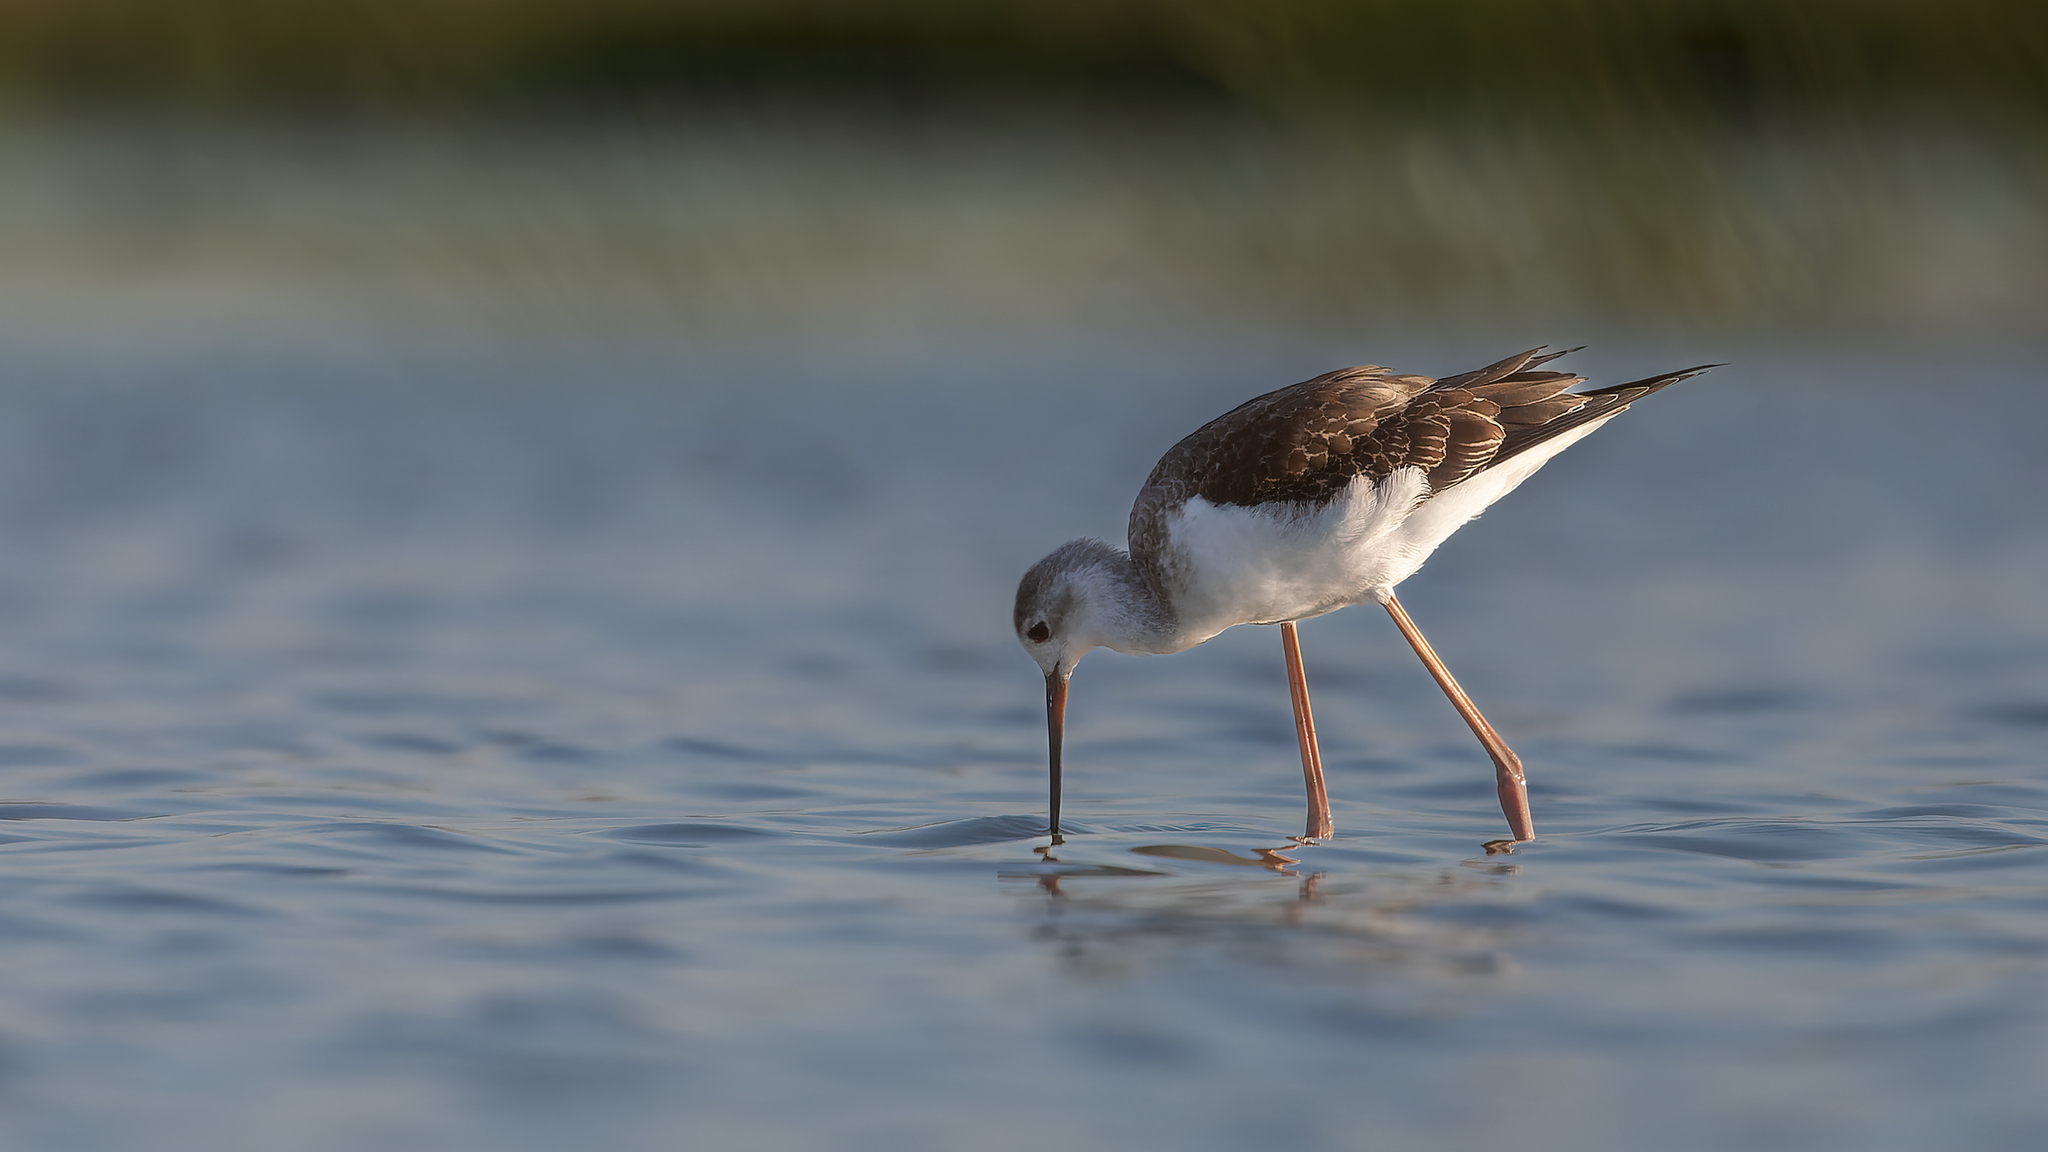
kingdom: Animalia
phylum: Chordata
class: Aves
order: Charadriiformes
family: Recurvirostridae
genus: Himantopus
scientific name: Himantopus himantopus
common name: Black-winged stilt
